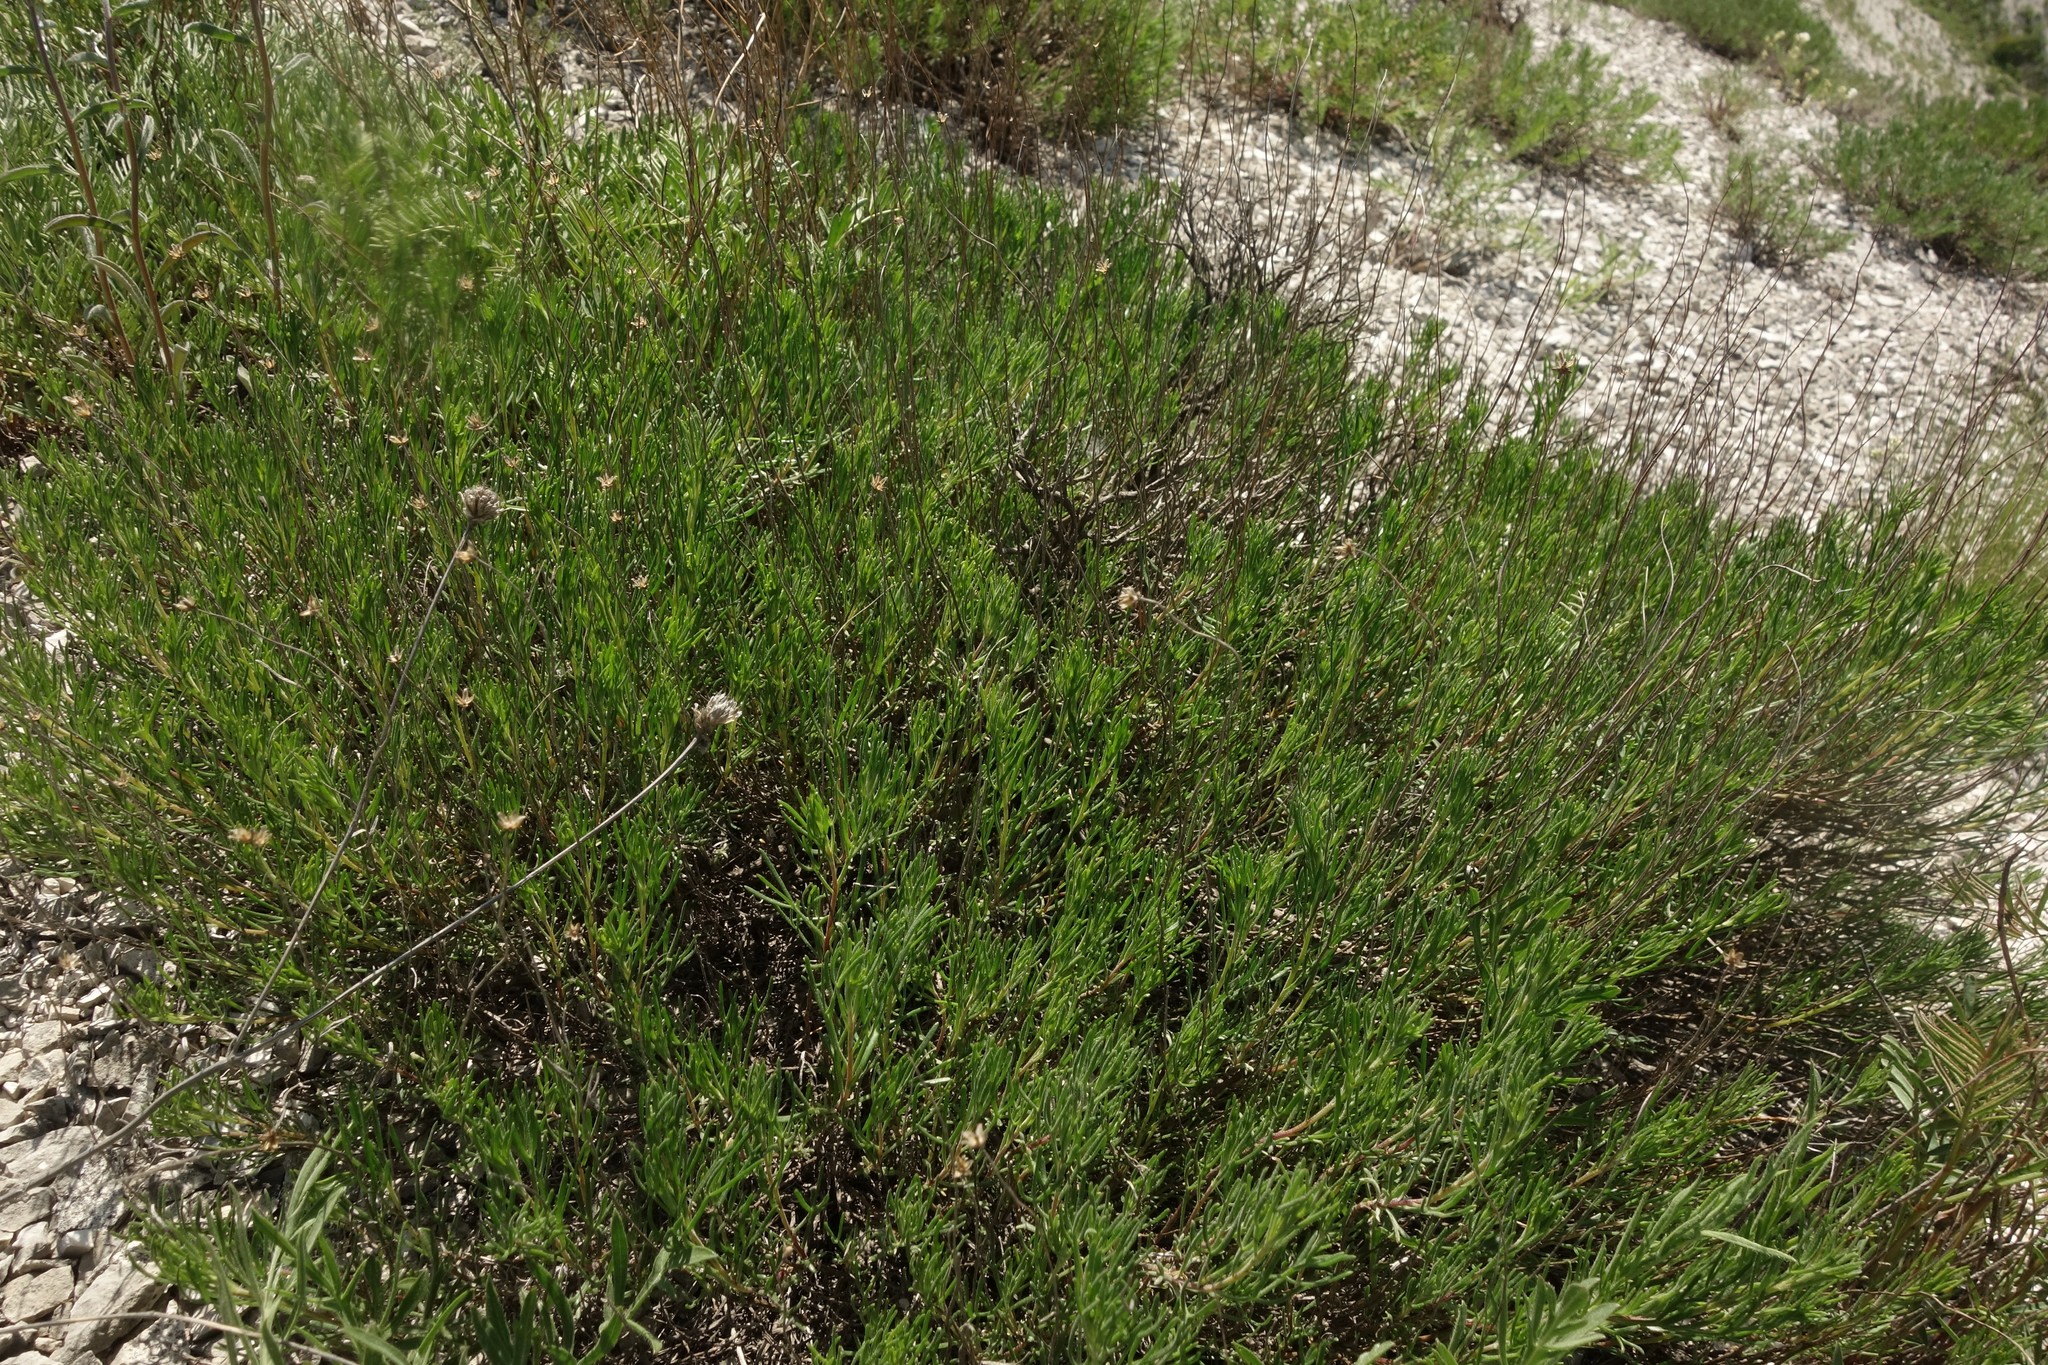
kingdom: Plantae
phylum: Tracheophyta
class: Magnoliopsida
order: Asterales
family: Asteraceae
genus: Artemisia
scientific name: Artemisia salsoloides
